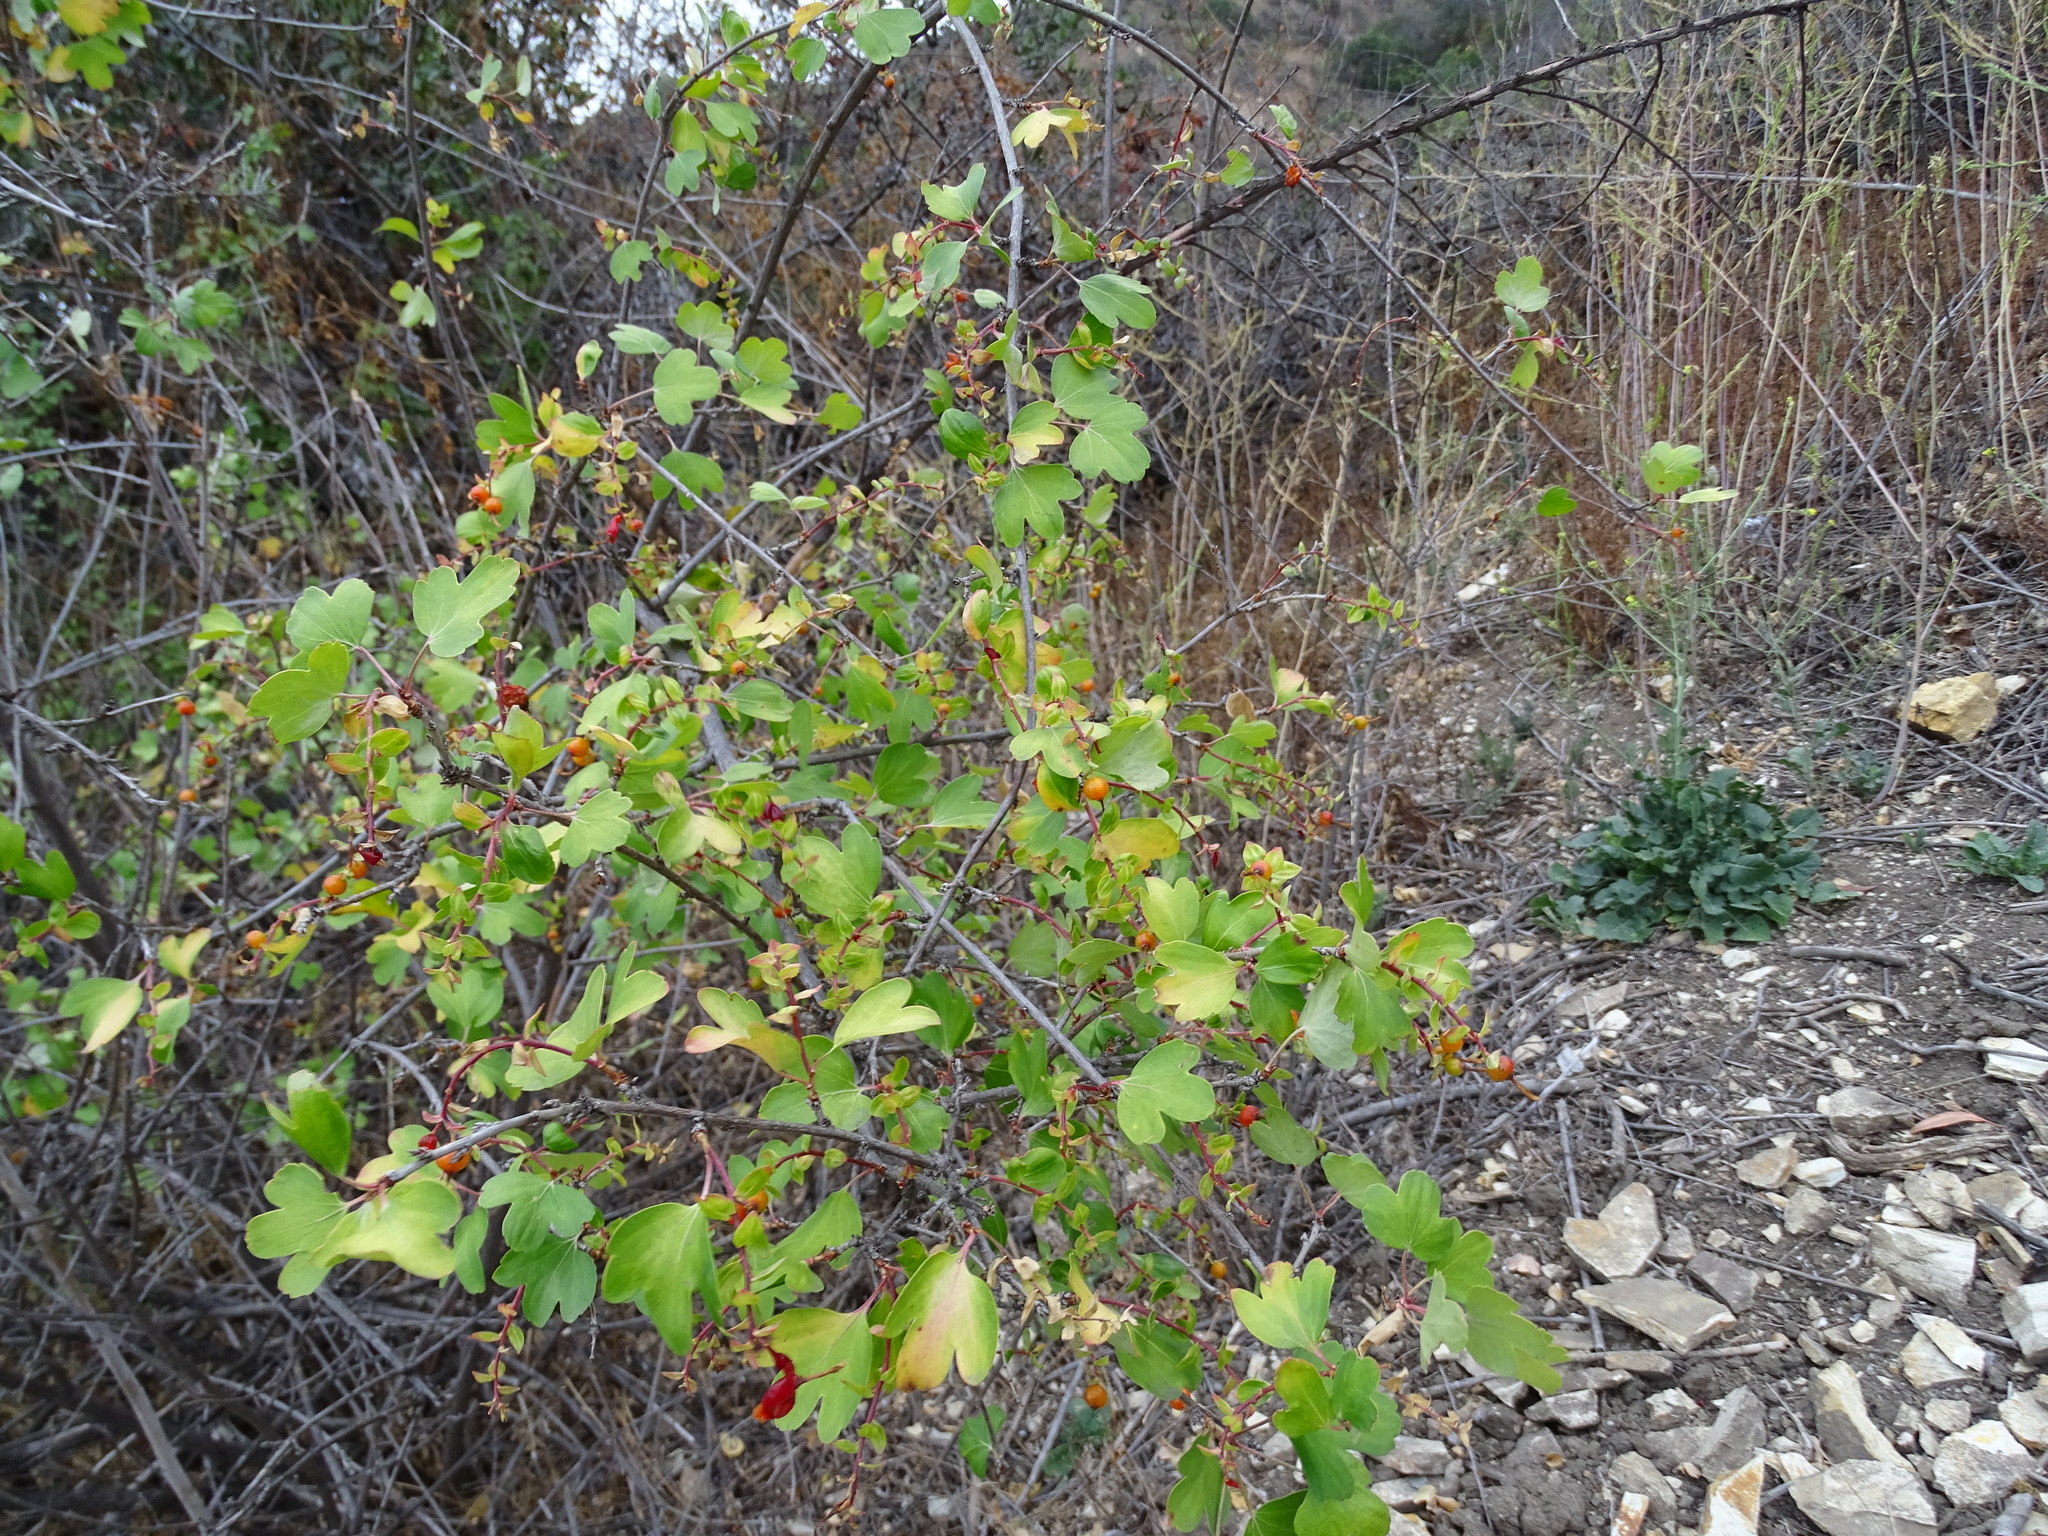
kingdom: Plantae
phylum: Tracheophyta
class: Magnoliopsida
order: Saxifragales
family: Grossulariaceae
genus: Ribes
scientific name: Ribes aureum
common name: Golden currant
